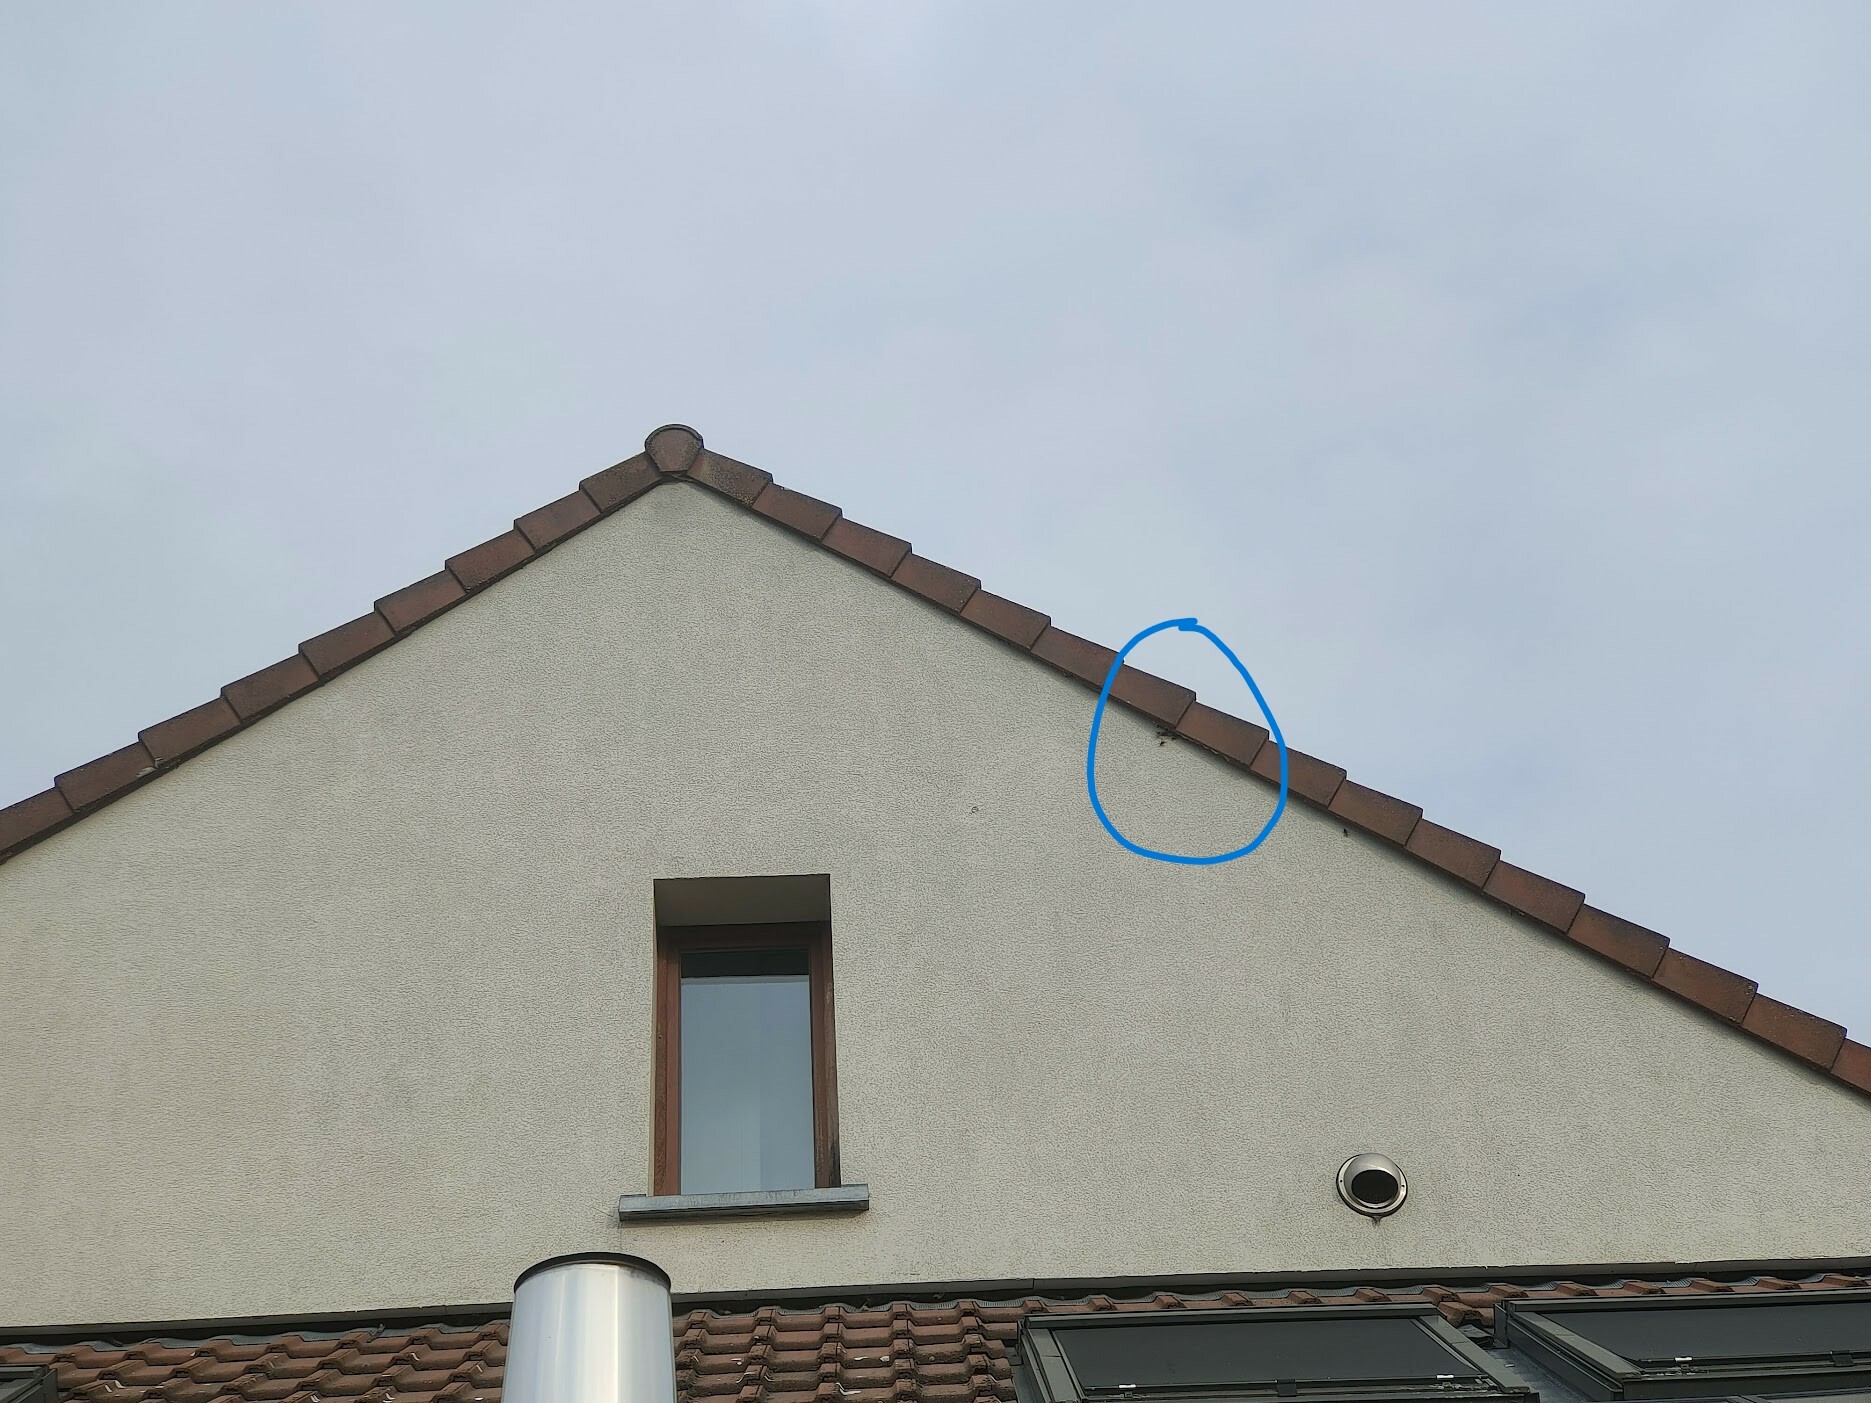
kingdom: Animalia
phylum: Arthropoda
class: Insecta
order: Hymenoptera
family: Vespidae
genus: Vespa
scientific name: Vespa crabro
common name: Hornet
